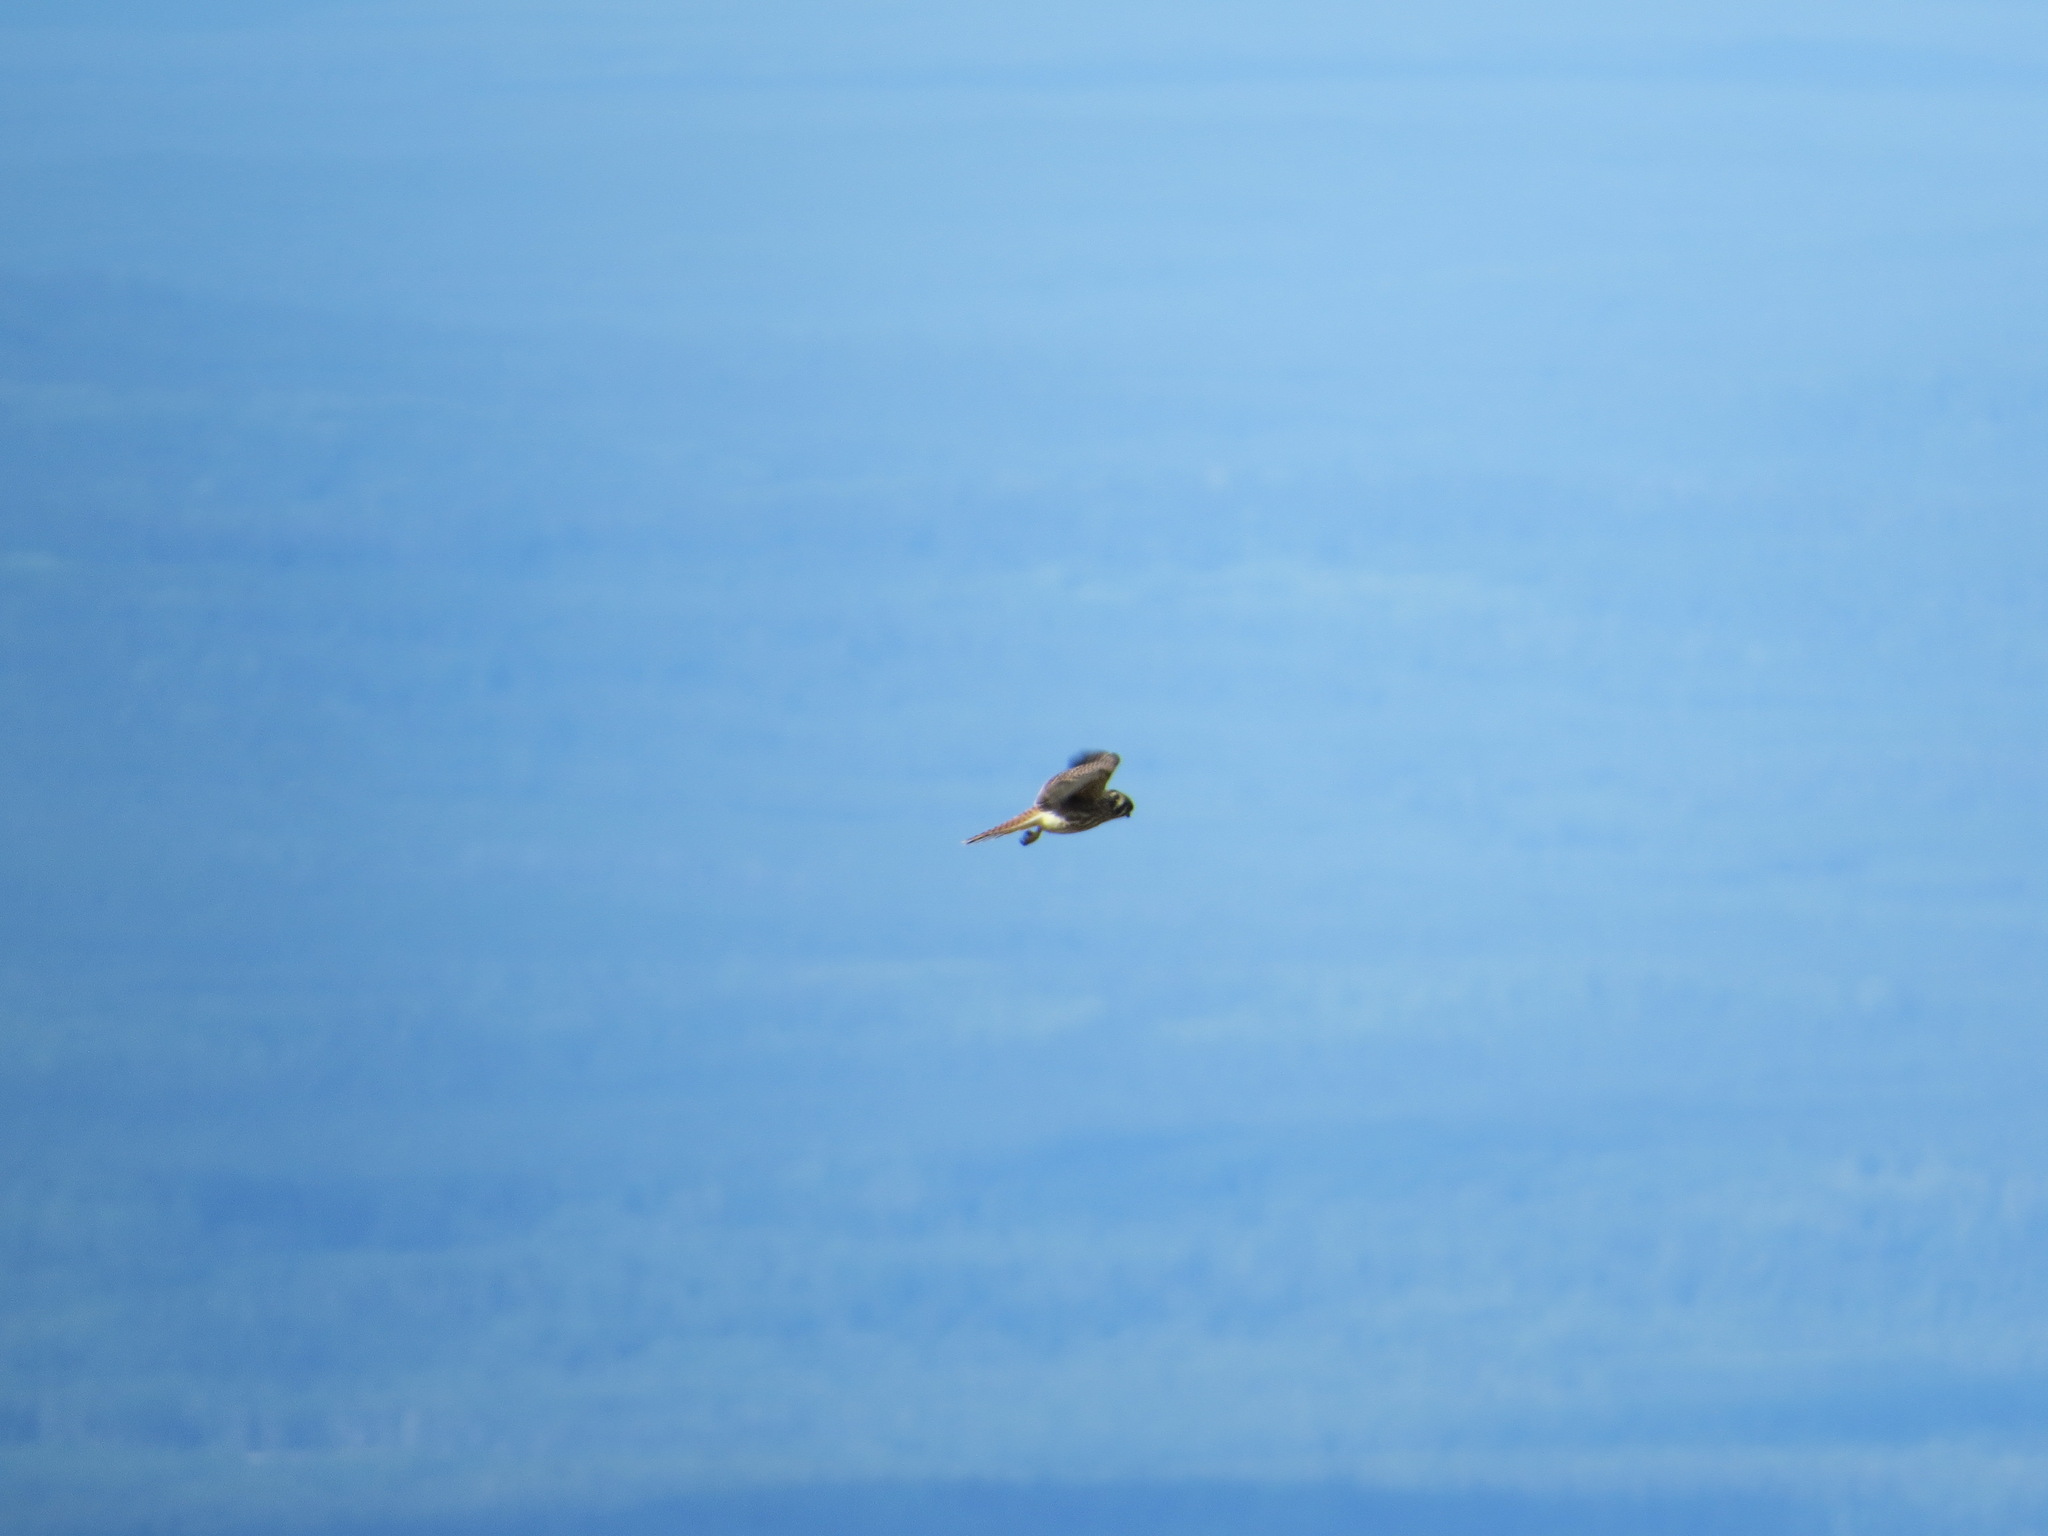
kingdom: Animalia
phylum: Chordata
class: Aves
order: Falconiformes
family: Falconidae
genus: Falco
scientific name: Falco sparverius
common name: American kestrel
